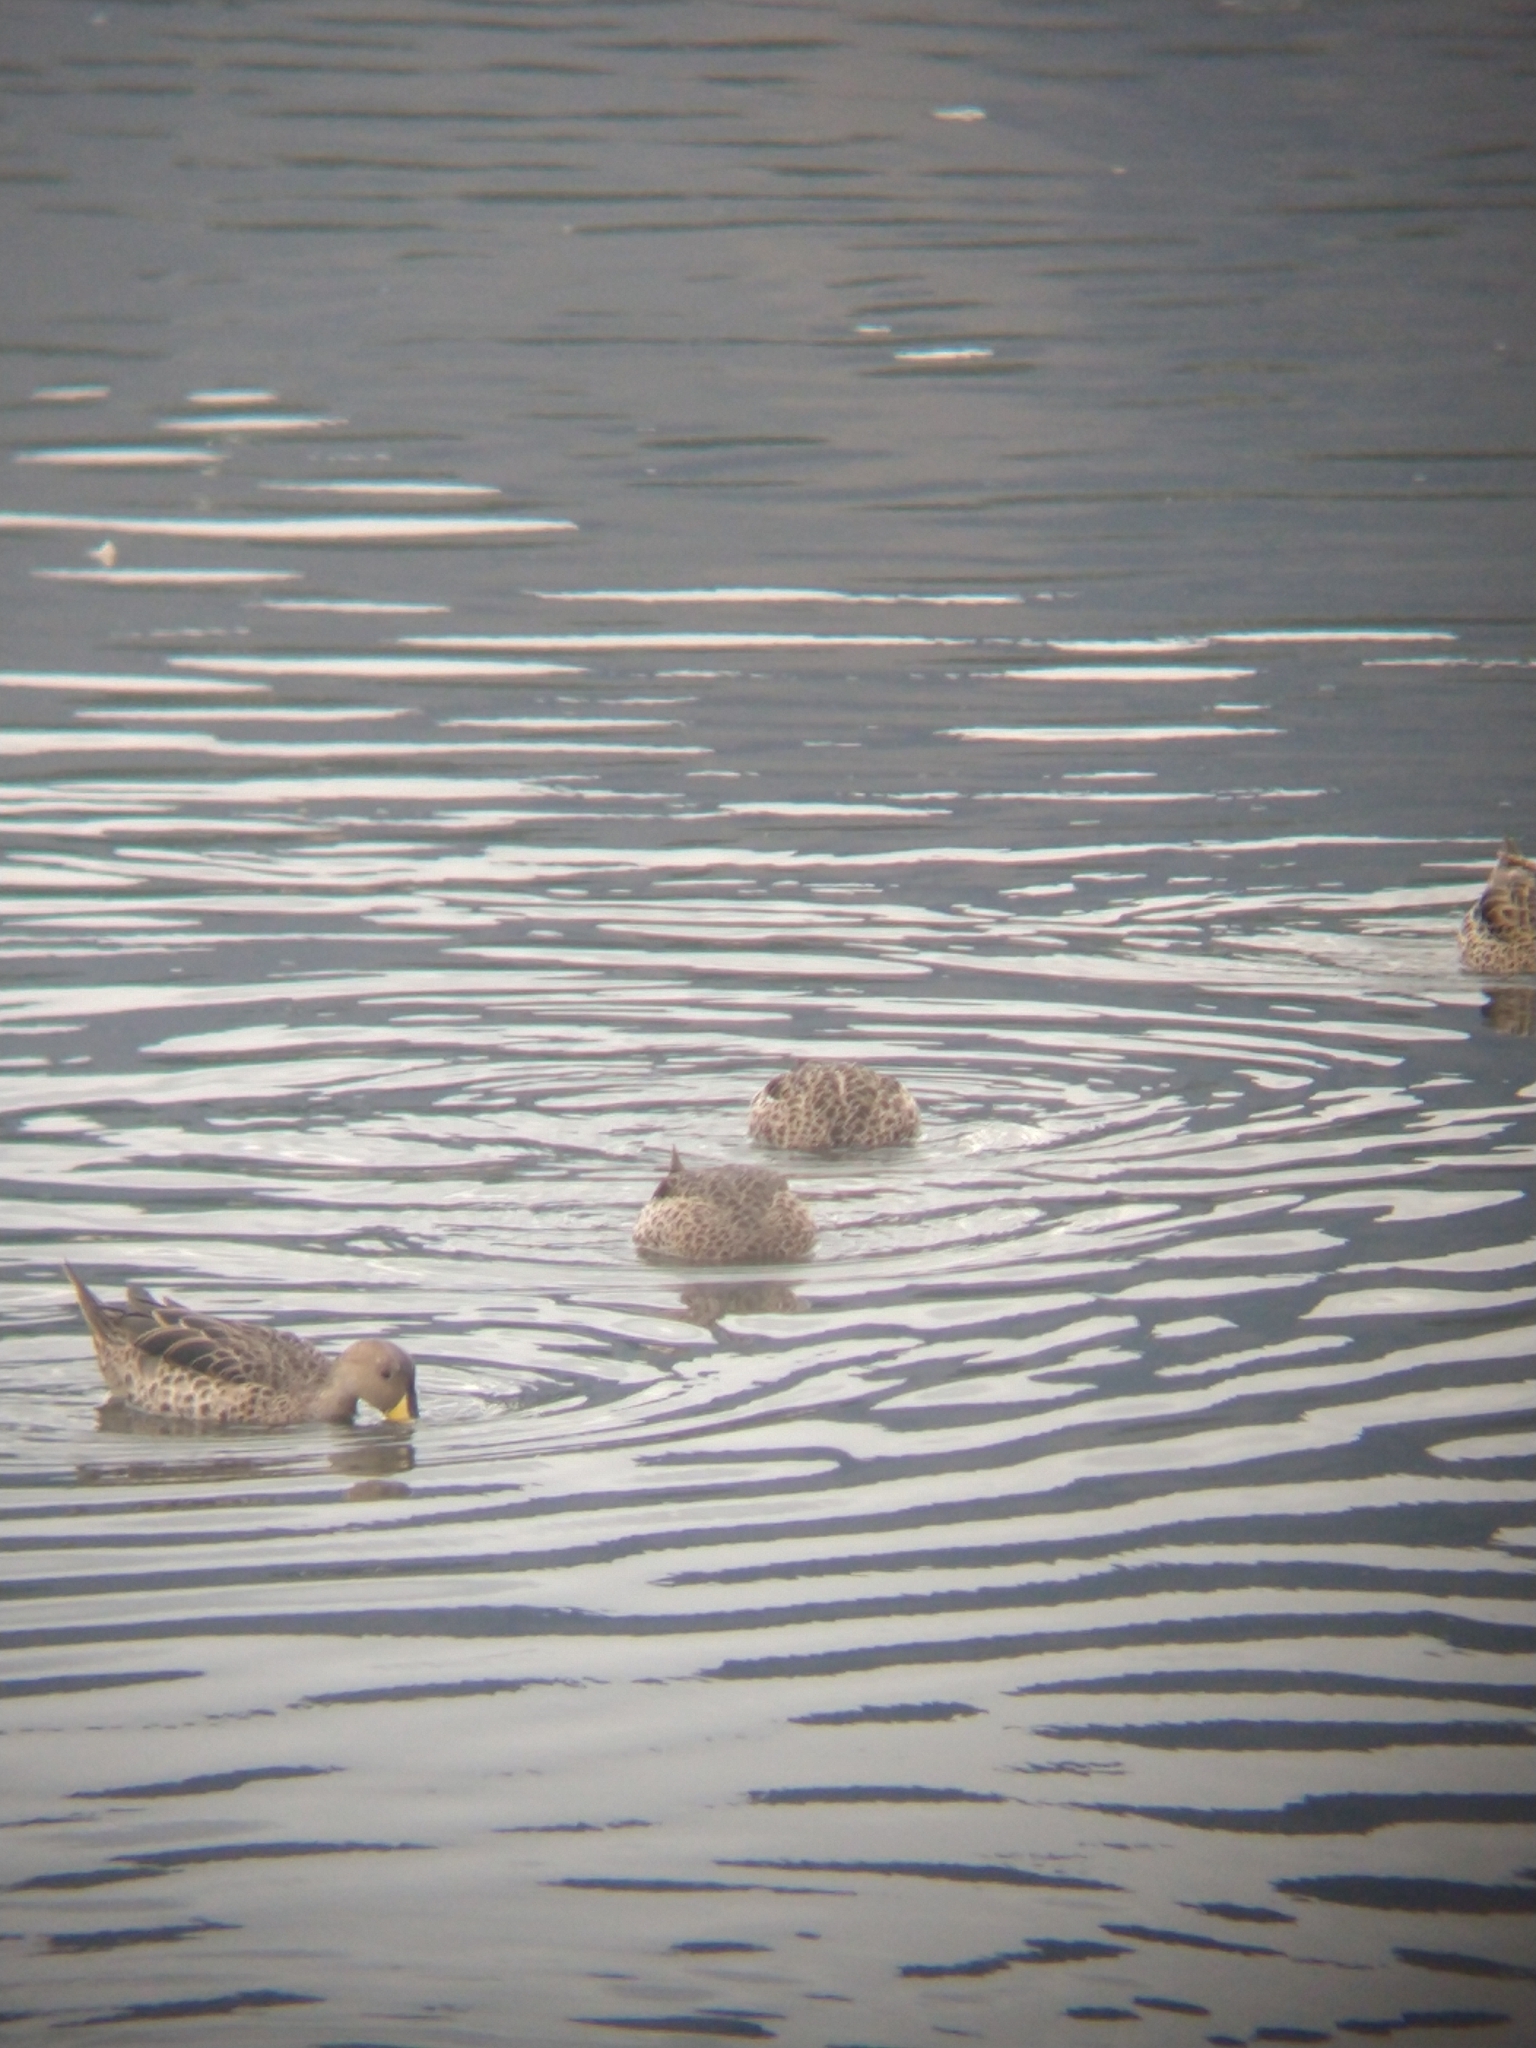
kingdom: Animalia
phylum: Chordata
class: Aves
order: Anseriformes
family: Anatidae
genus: Anas
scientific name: Anas georgica
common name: Yellow-billed pintail
